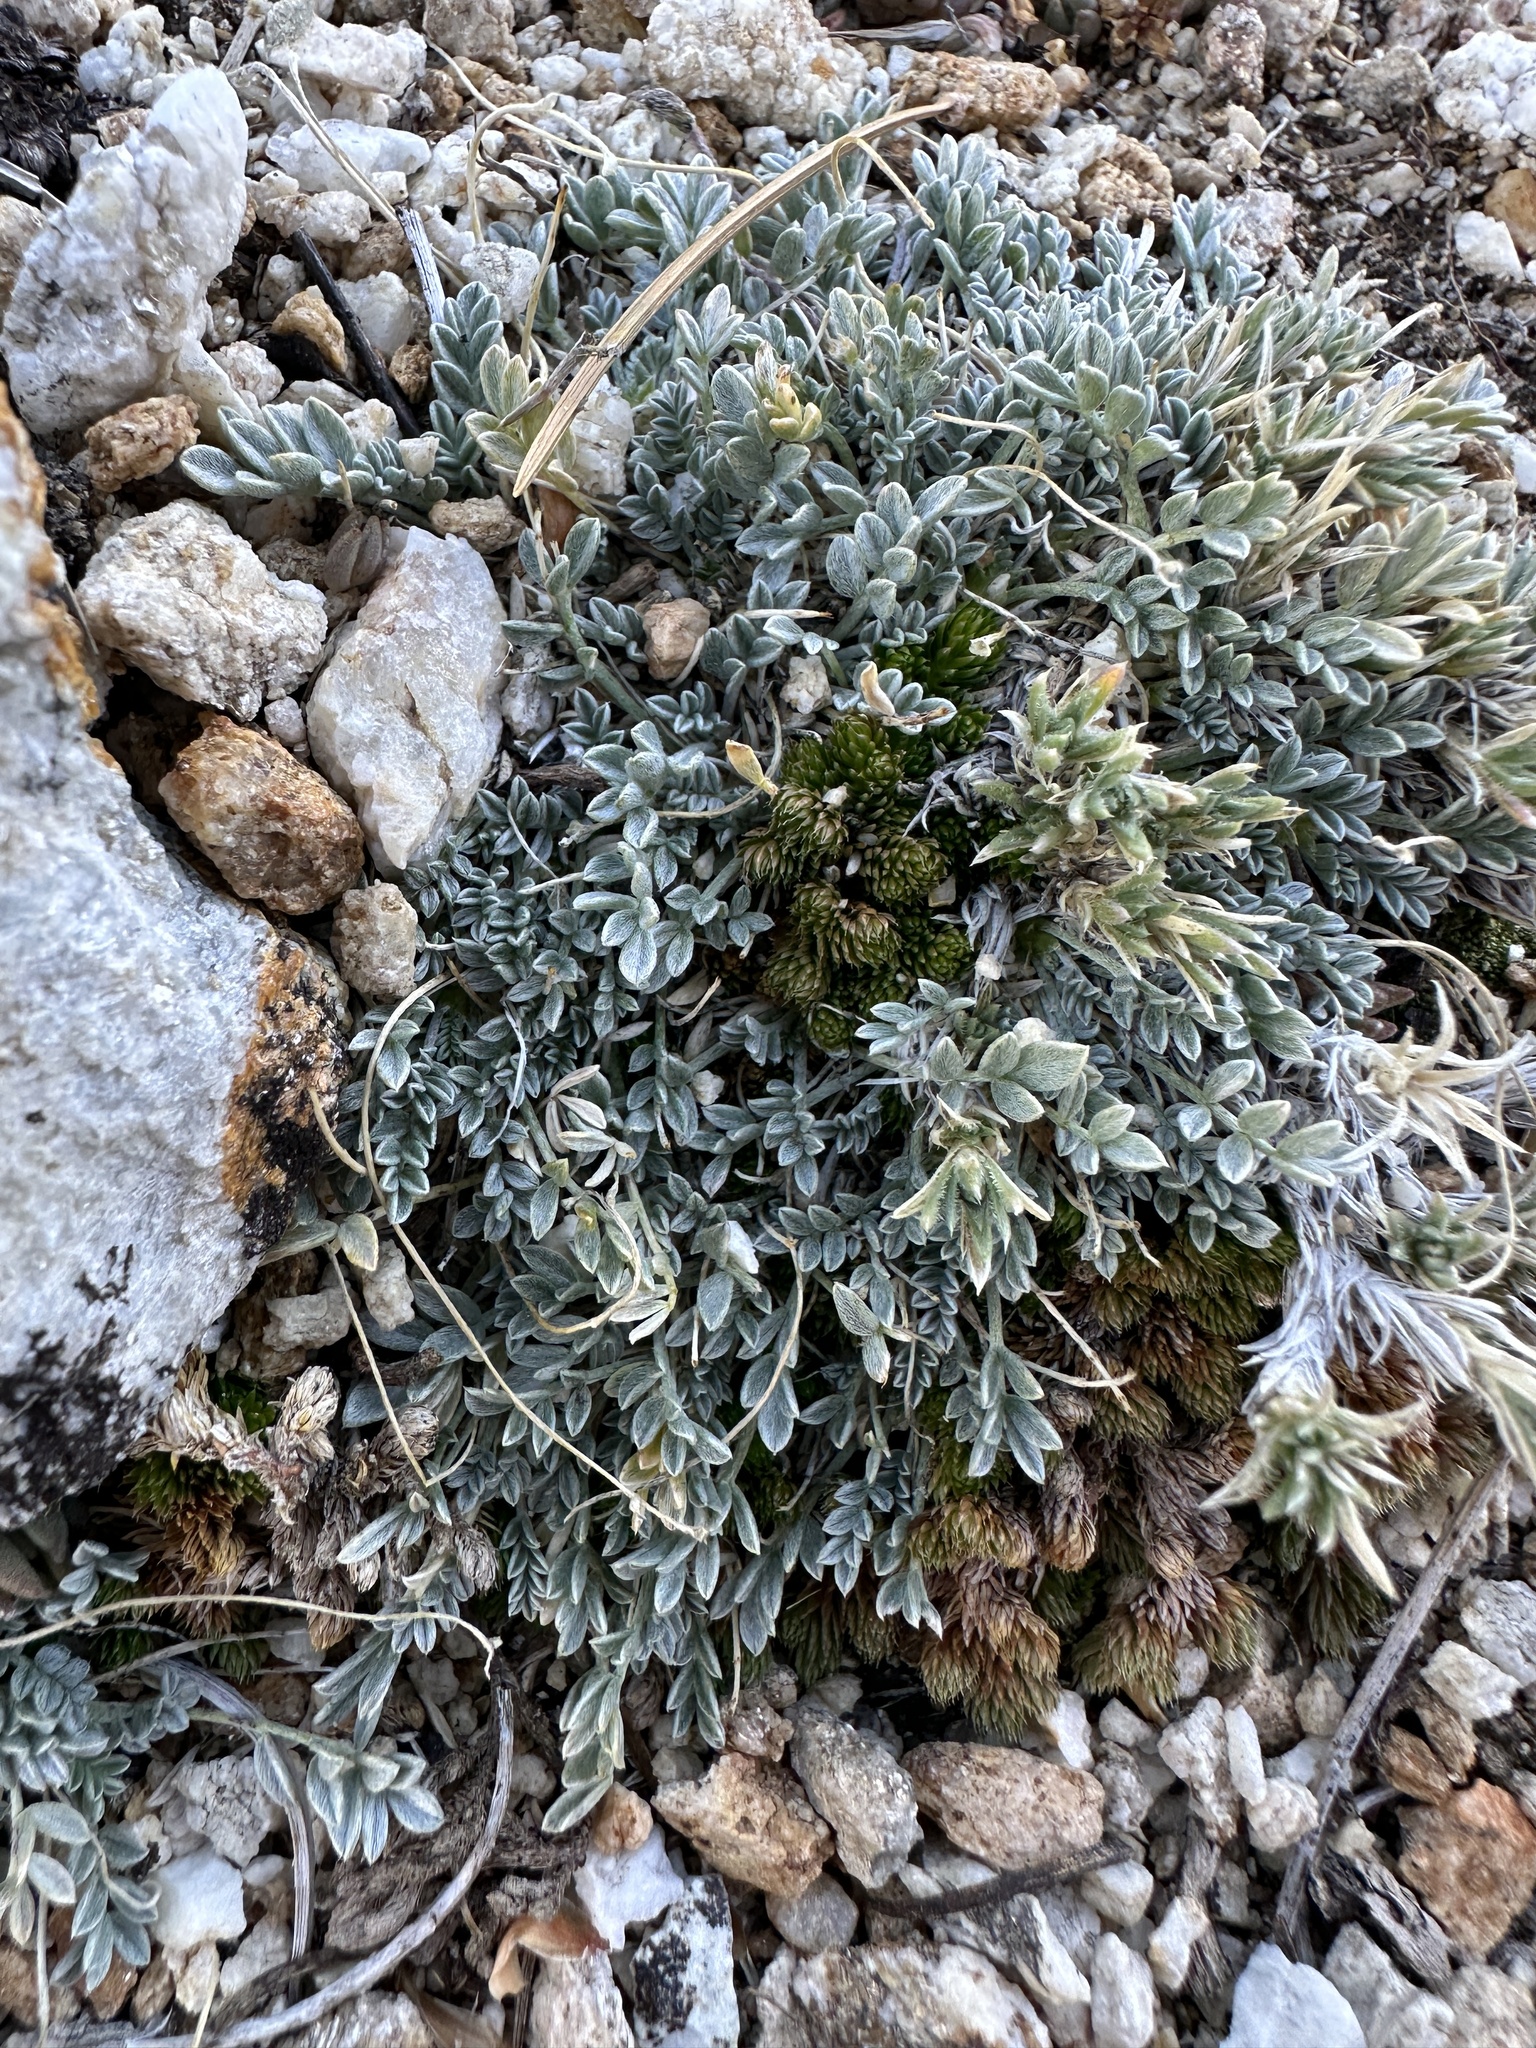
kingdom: Plantae
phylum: Tracheophyta
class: Magnoliopsida
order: Fabales
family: Fabaceae
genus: Astragalus
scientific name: Astragalus calycosus
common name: King's milkvetch
